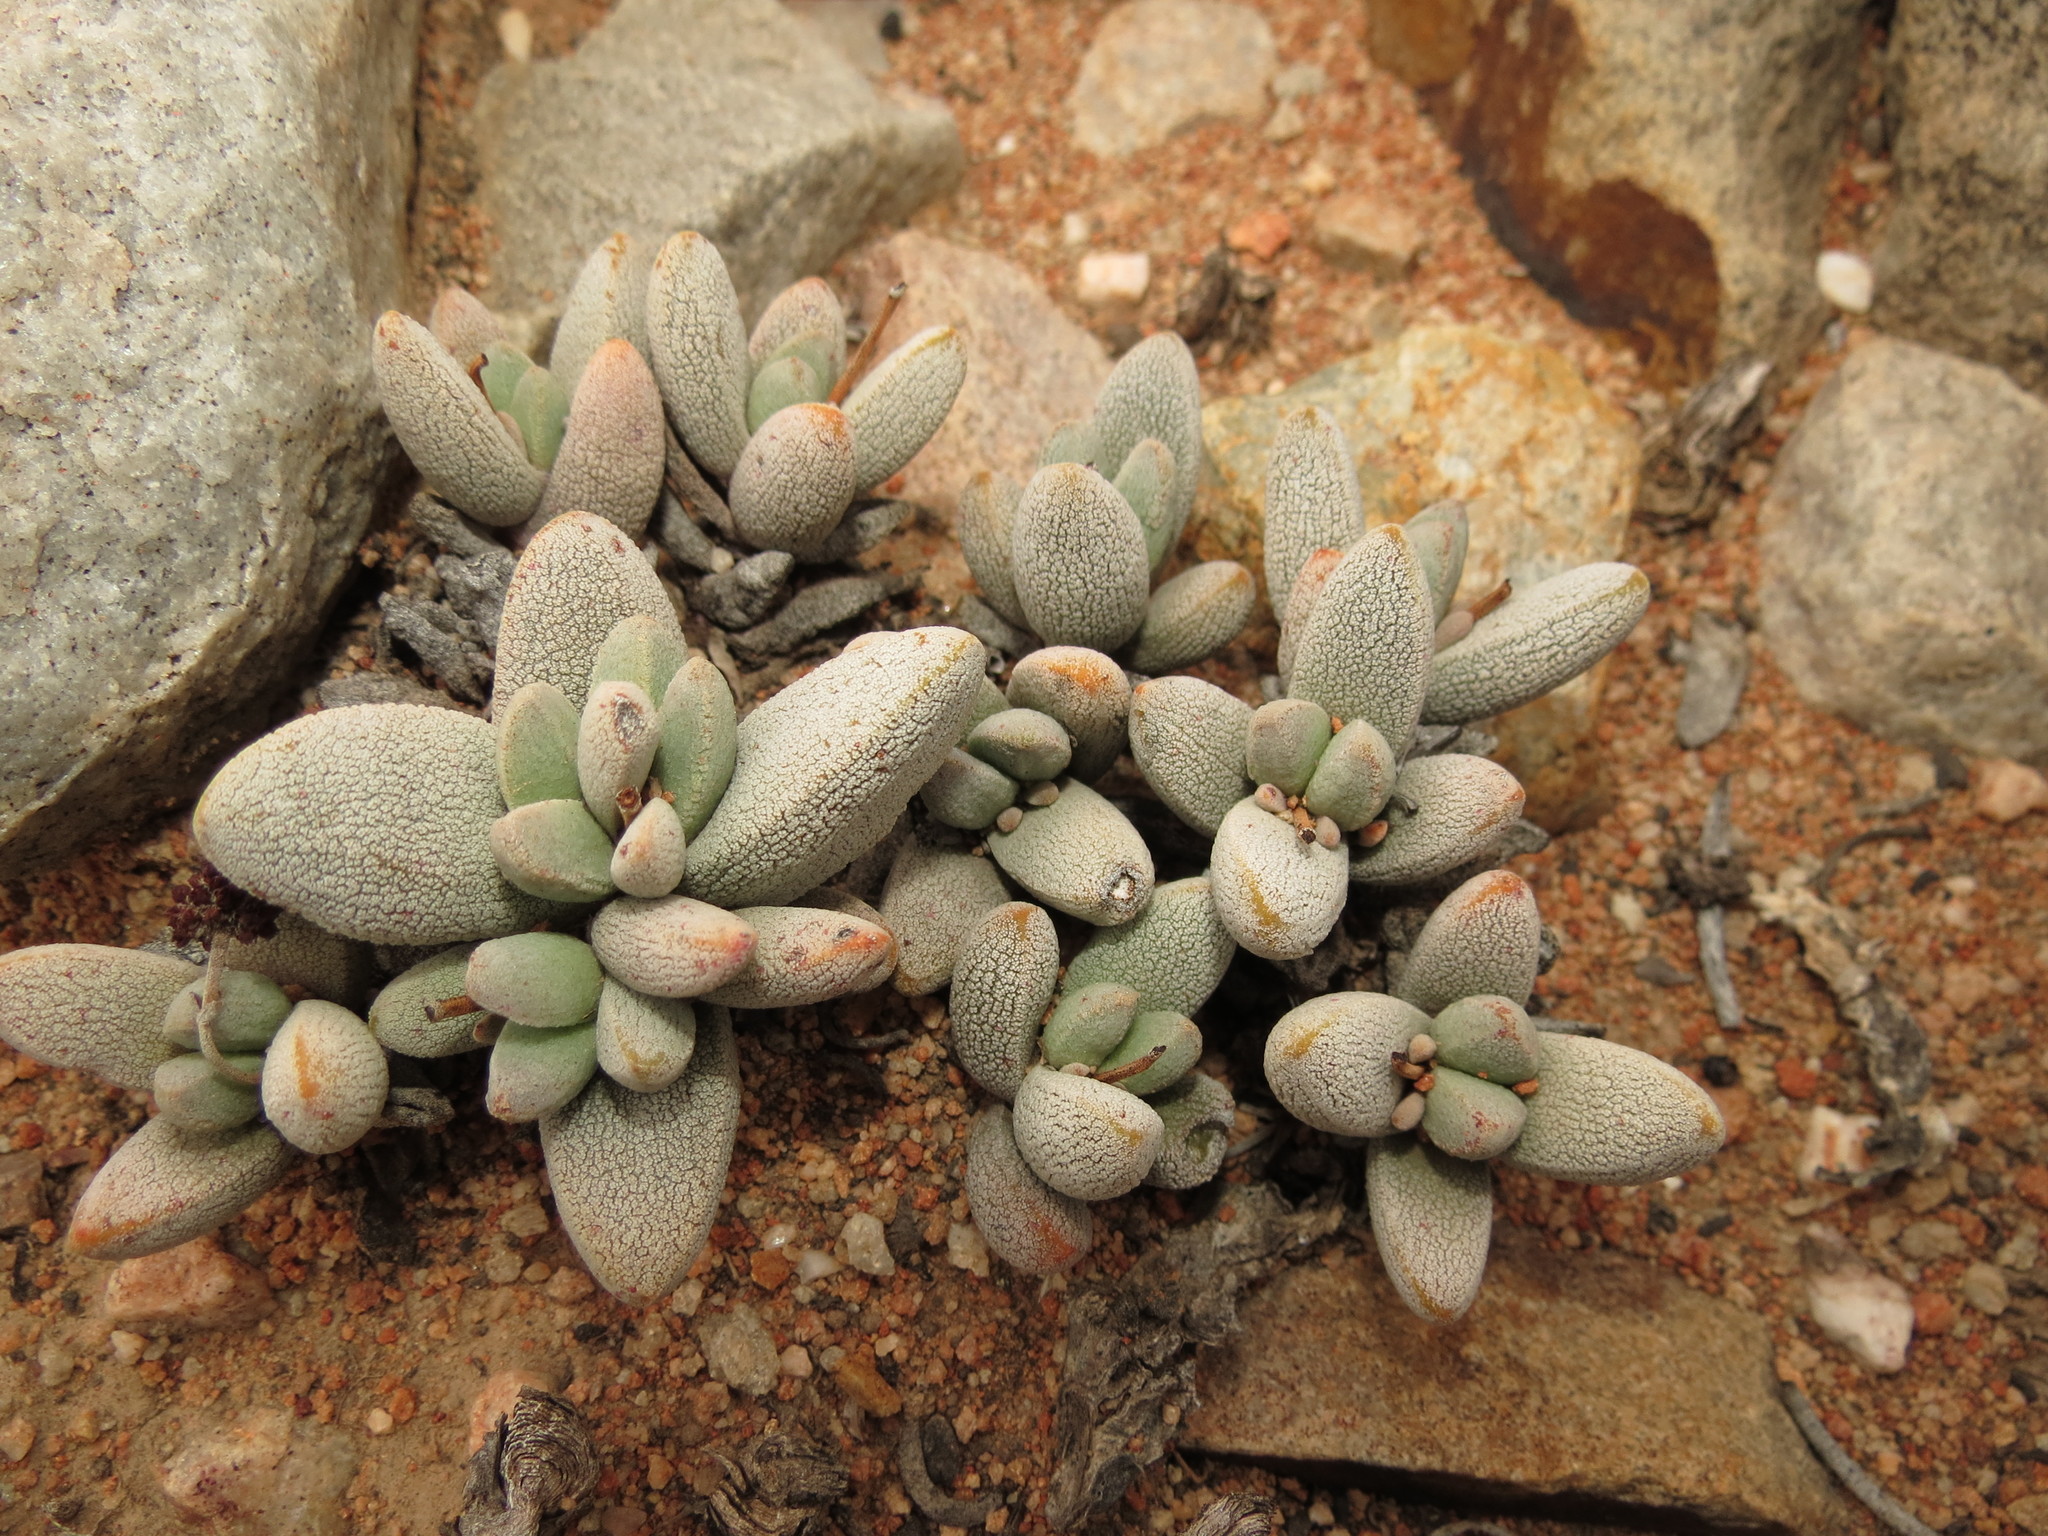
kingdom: Plantae
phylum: Tracheophyta
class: Magnoliopsida
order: Saxifragales
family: Crassulaceae
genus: Crassula
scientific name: Crassula tecta
